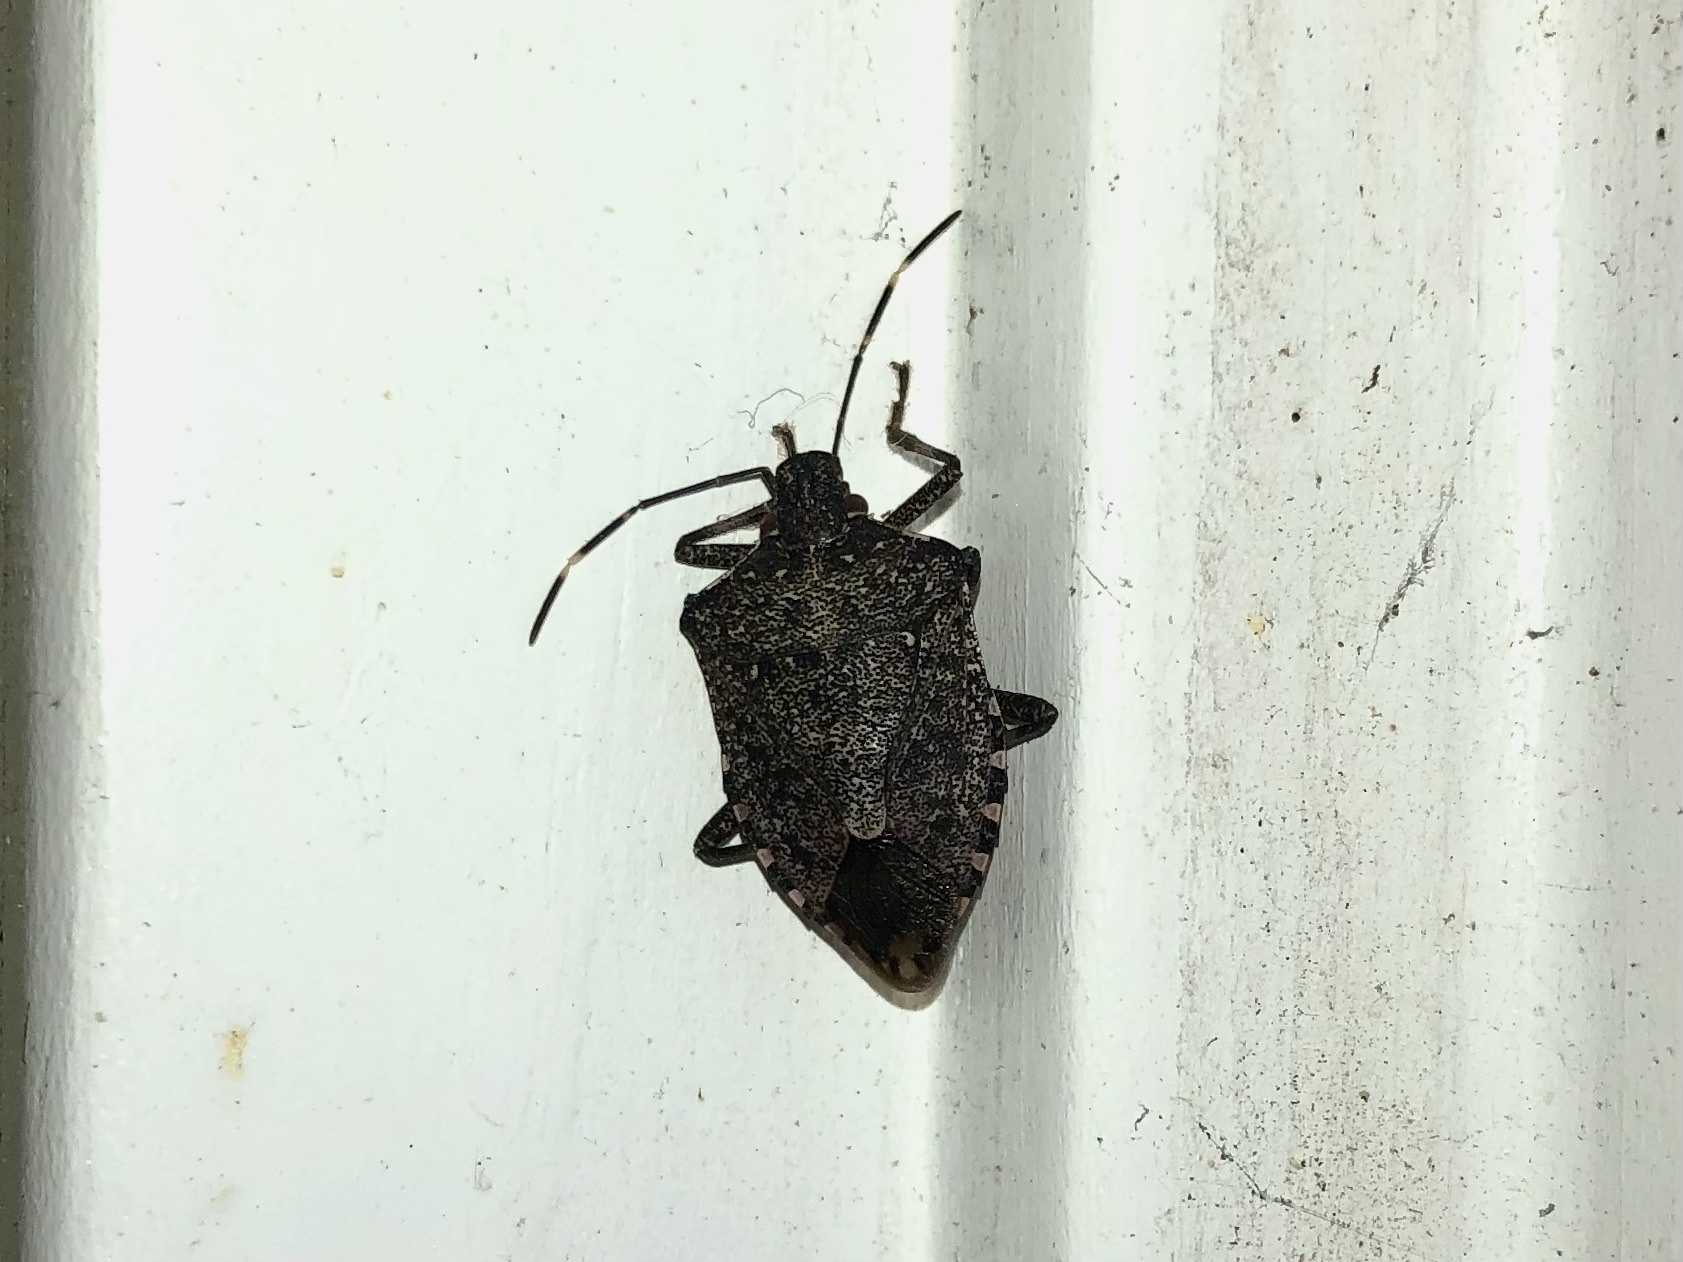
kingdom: Animalia
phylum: Arthropoda
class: Insecta
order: Hemiptera
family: Pentatomidae
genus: Halyomorpha
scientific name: Halyomorpha halys
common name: Brown marmorated stink bug
